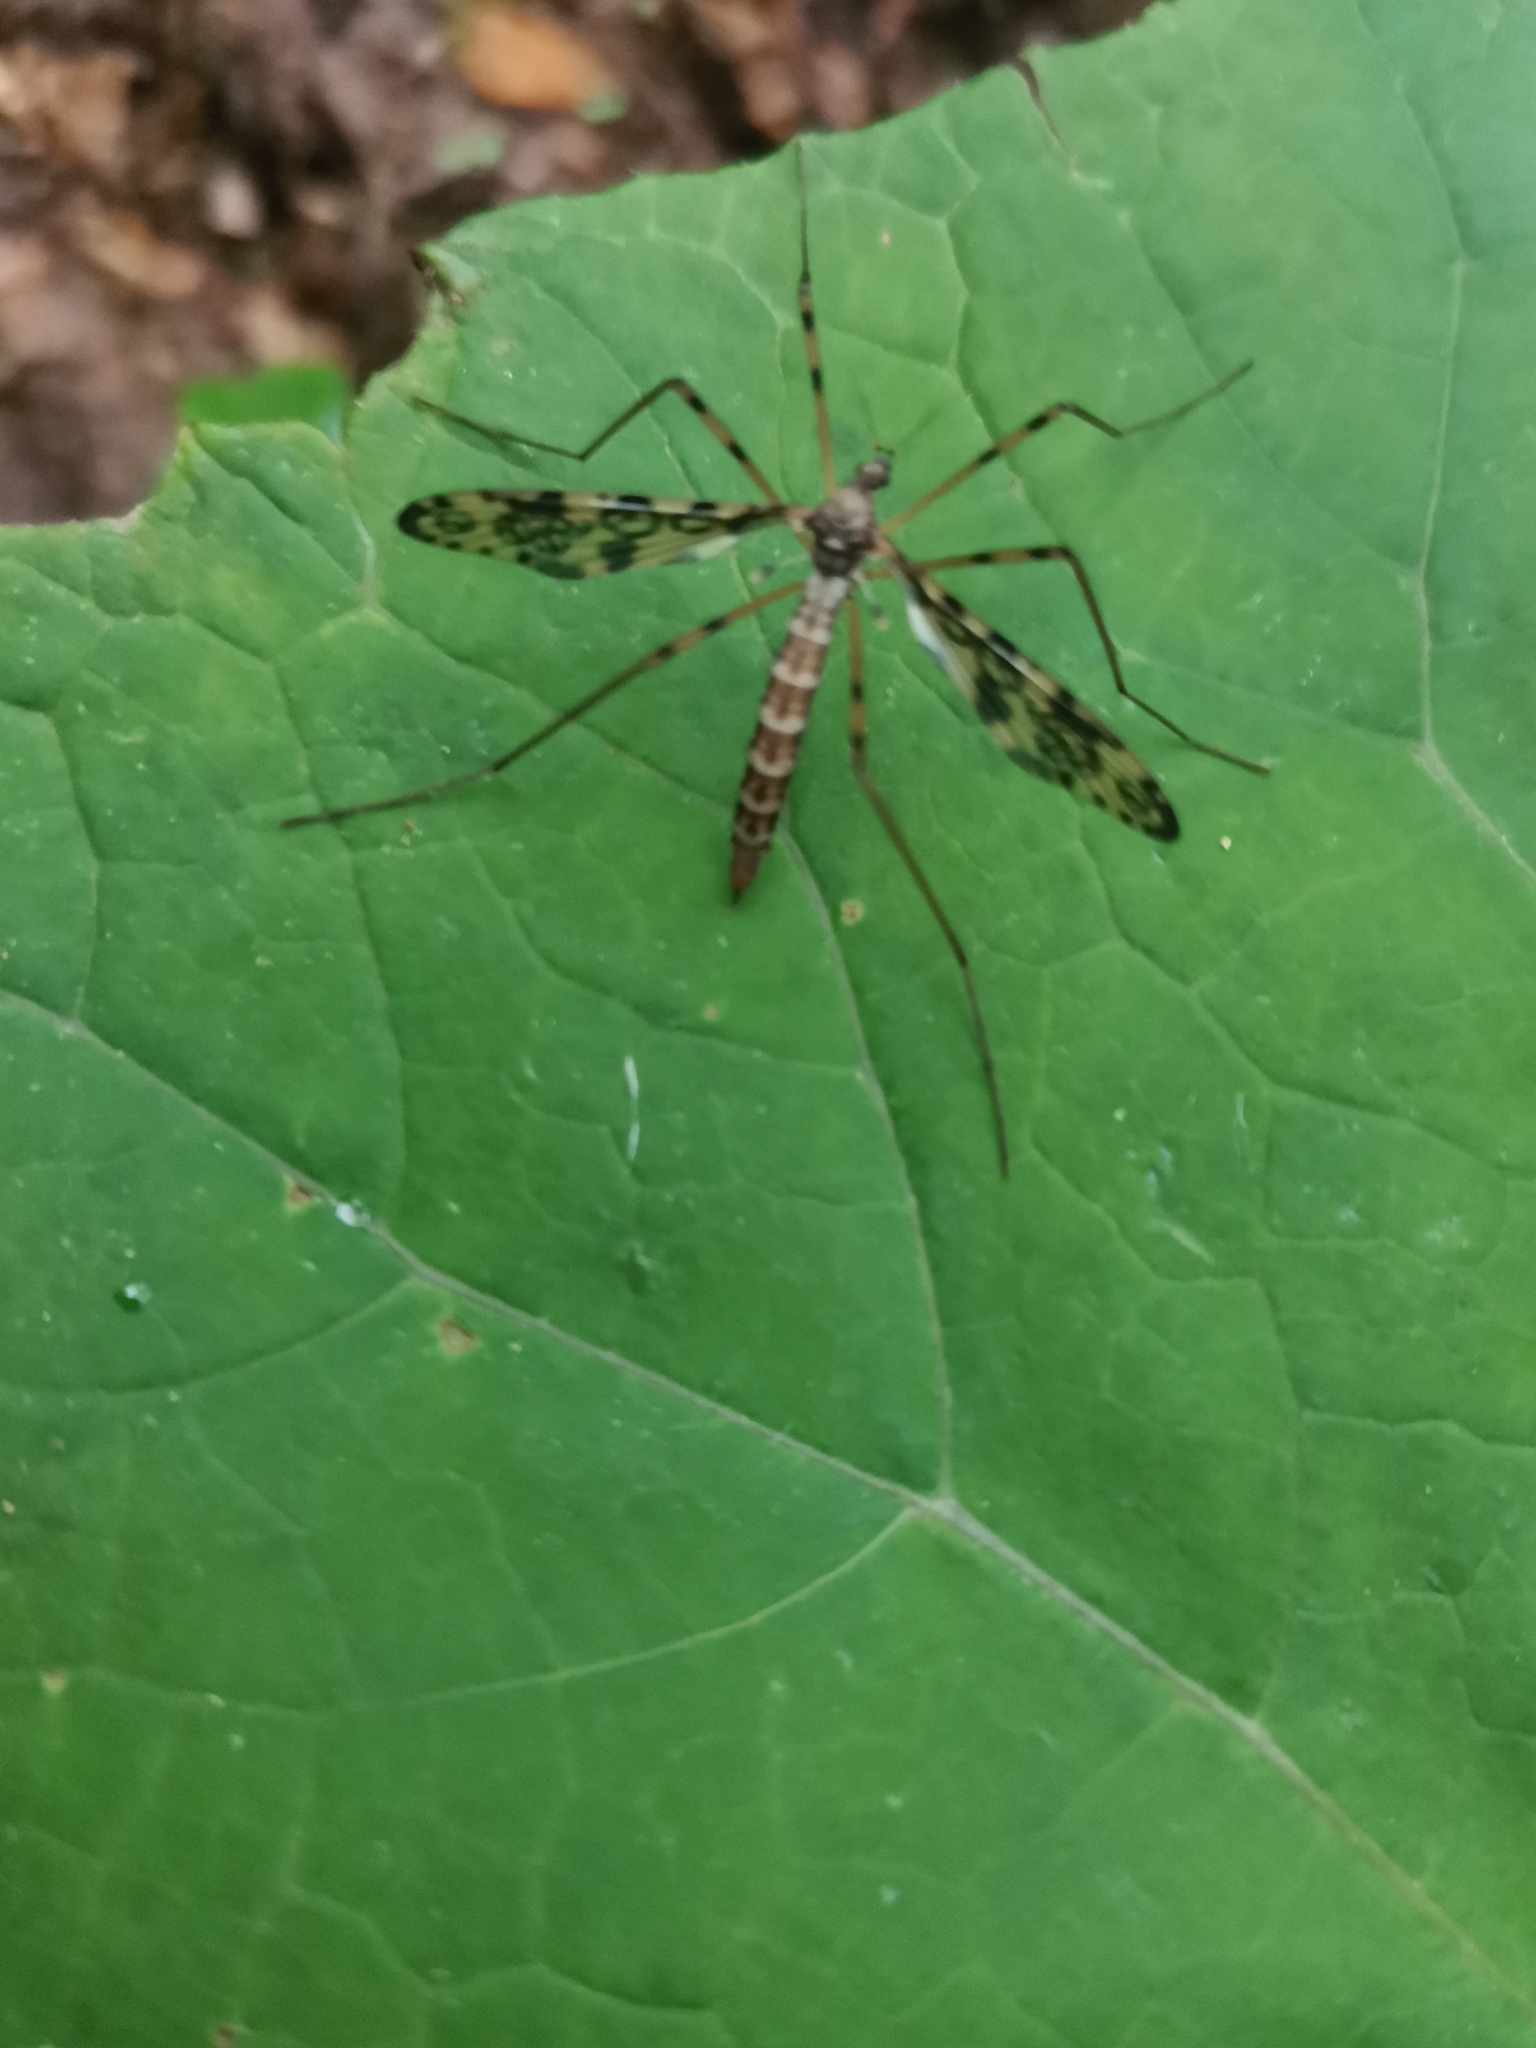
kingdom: Animalia
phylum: Arthropoda
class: Insecta
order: Diptera
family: Limoniidae
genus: Epiphragma
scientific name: Epiphragma ocellare
